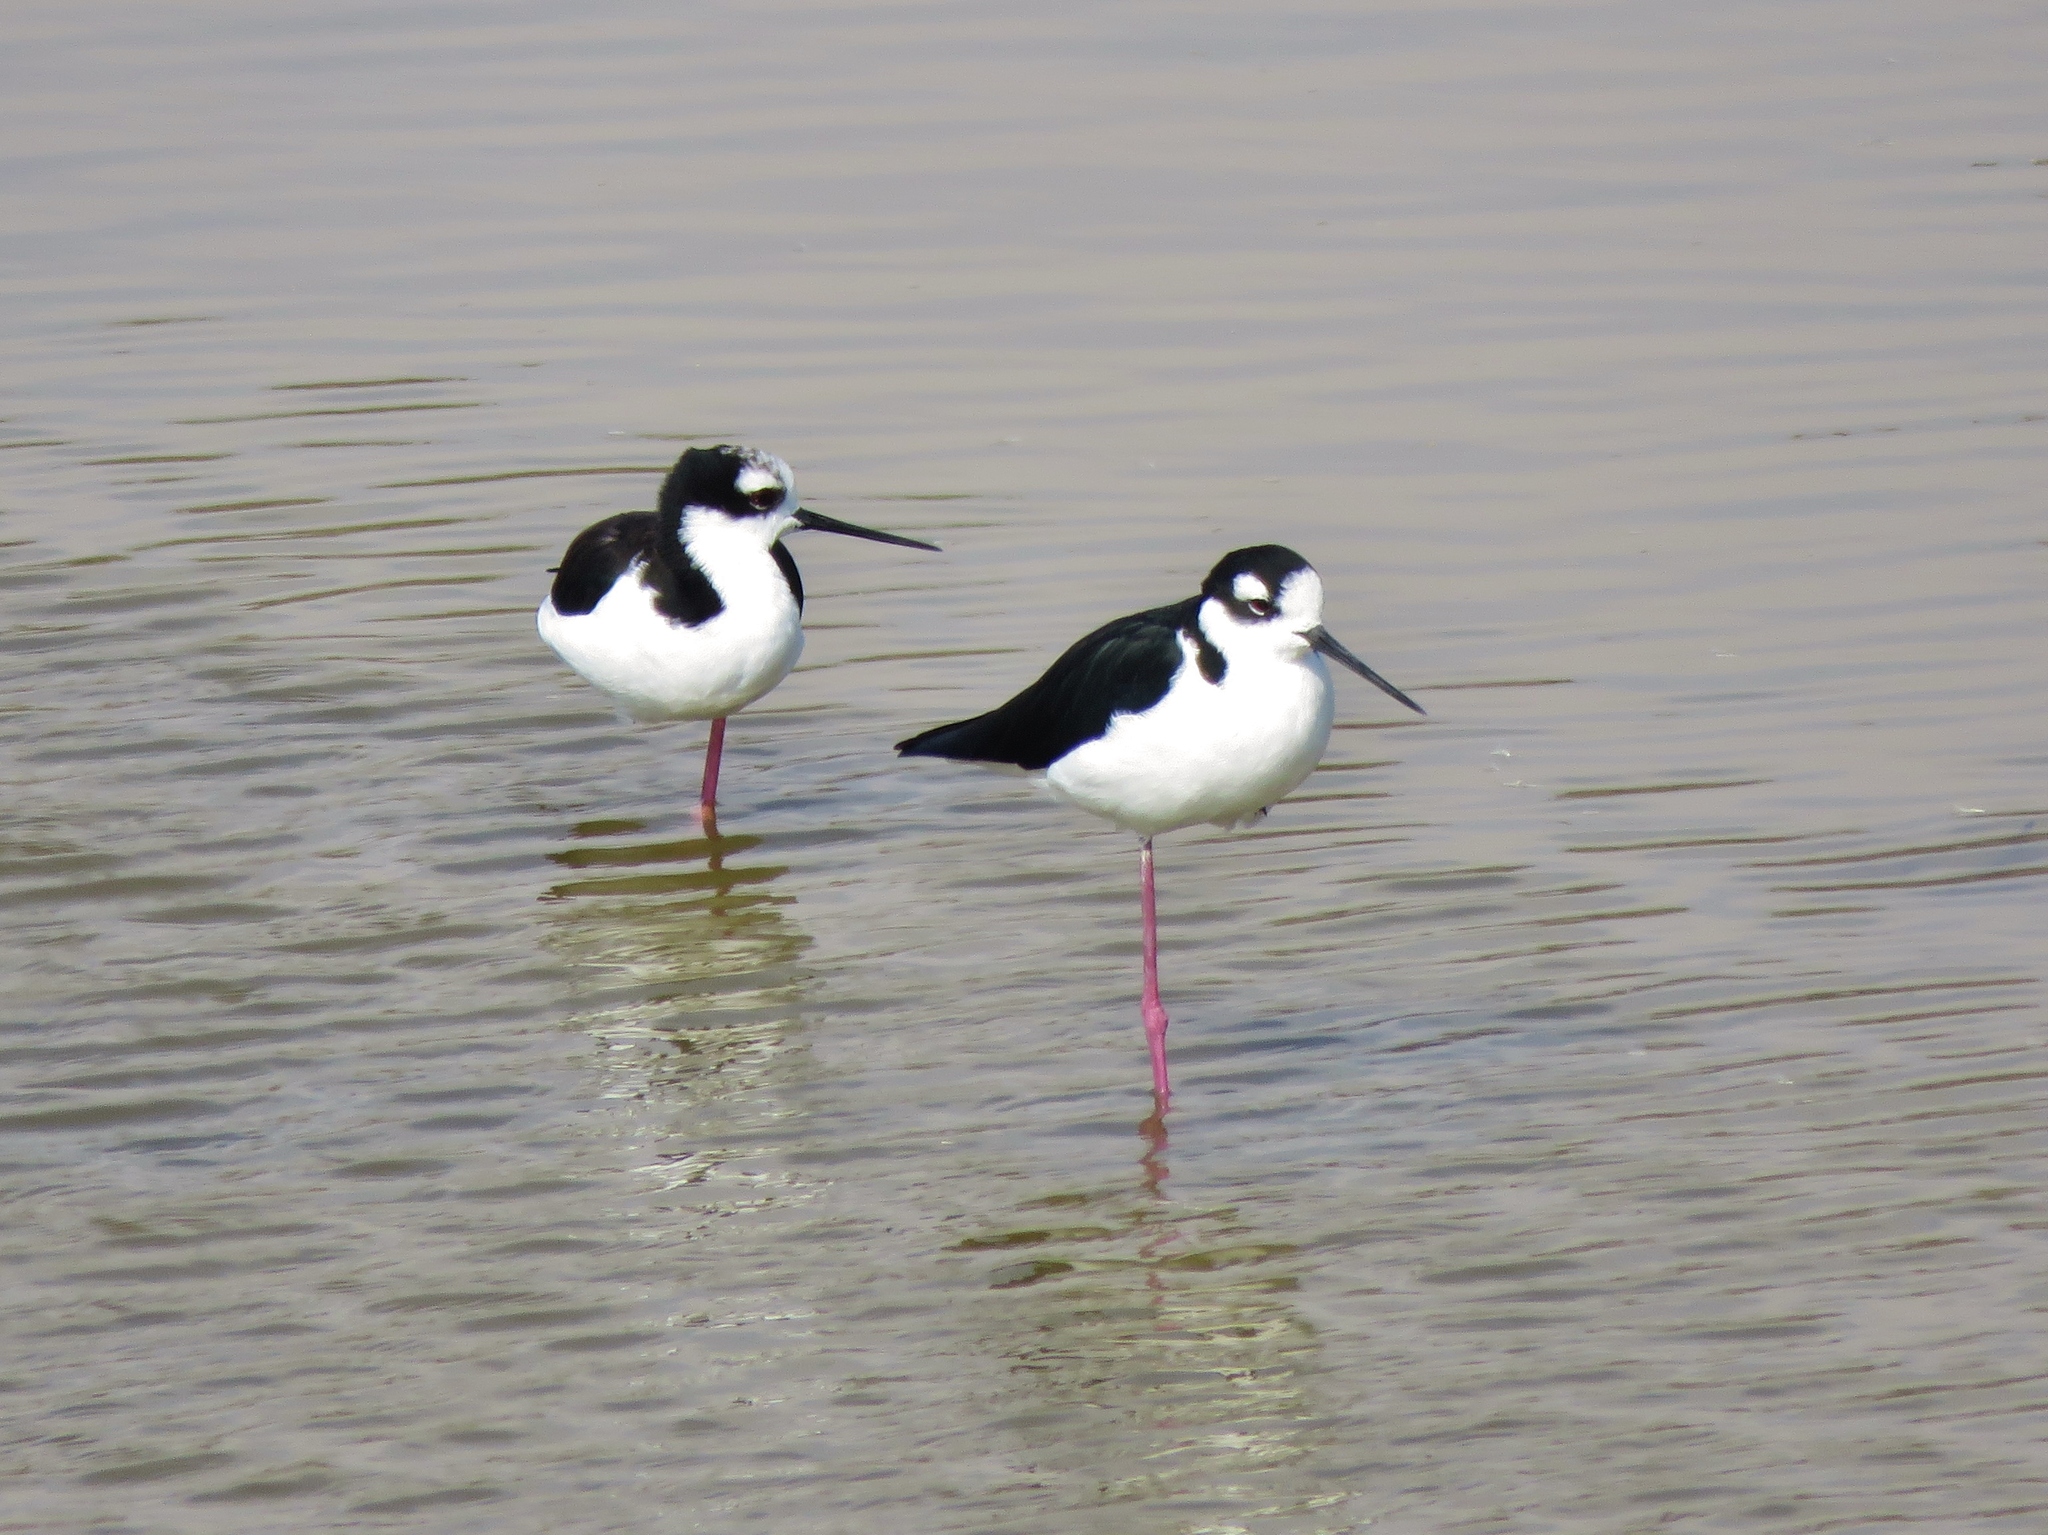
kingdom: Animalia
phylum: Chordata
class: Aves
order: Charadriiformes
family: Recurvirostridae
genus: Himantopus
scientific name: Himantopus mexicanus
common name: Black-necked stilt
